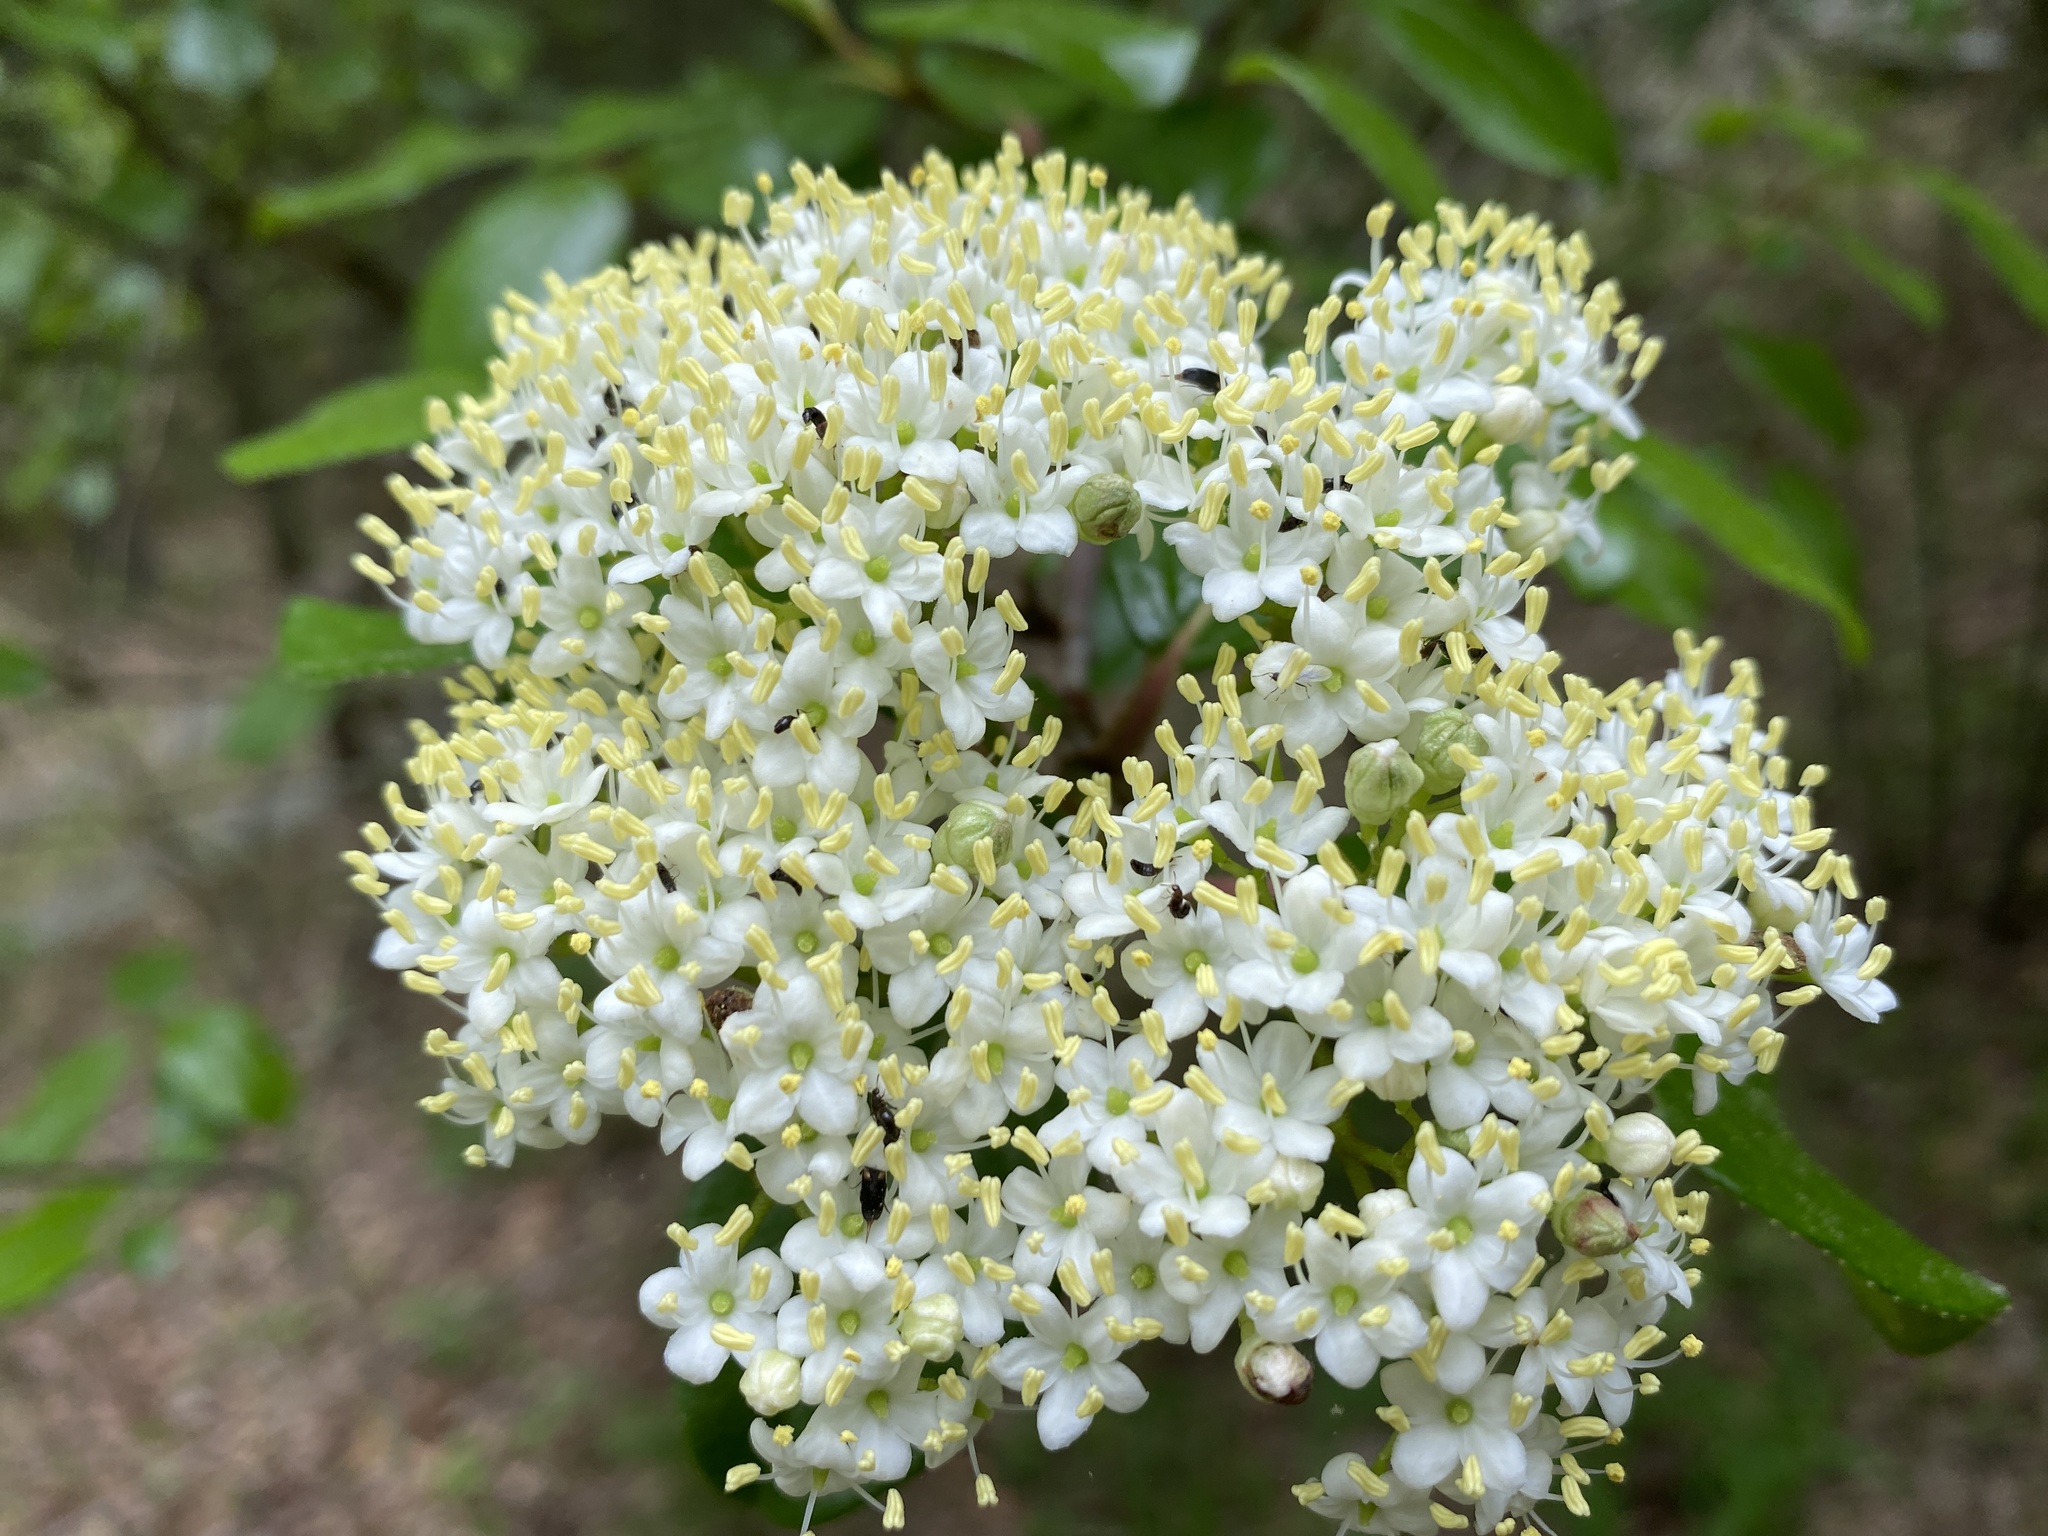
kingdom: Plantae
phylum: Tracheophyta
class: Magnoliopsida
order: Dipsacales
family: Viburnaceae
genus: Viburnum
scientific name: Viburnum rufidulum
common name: Blue haw
